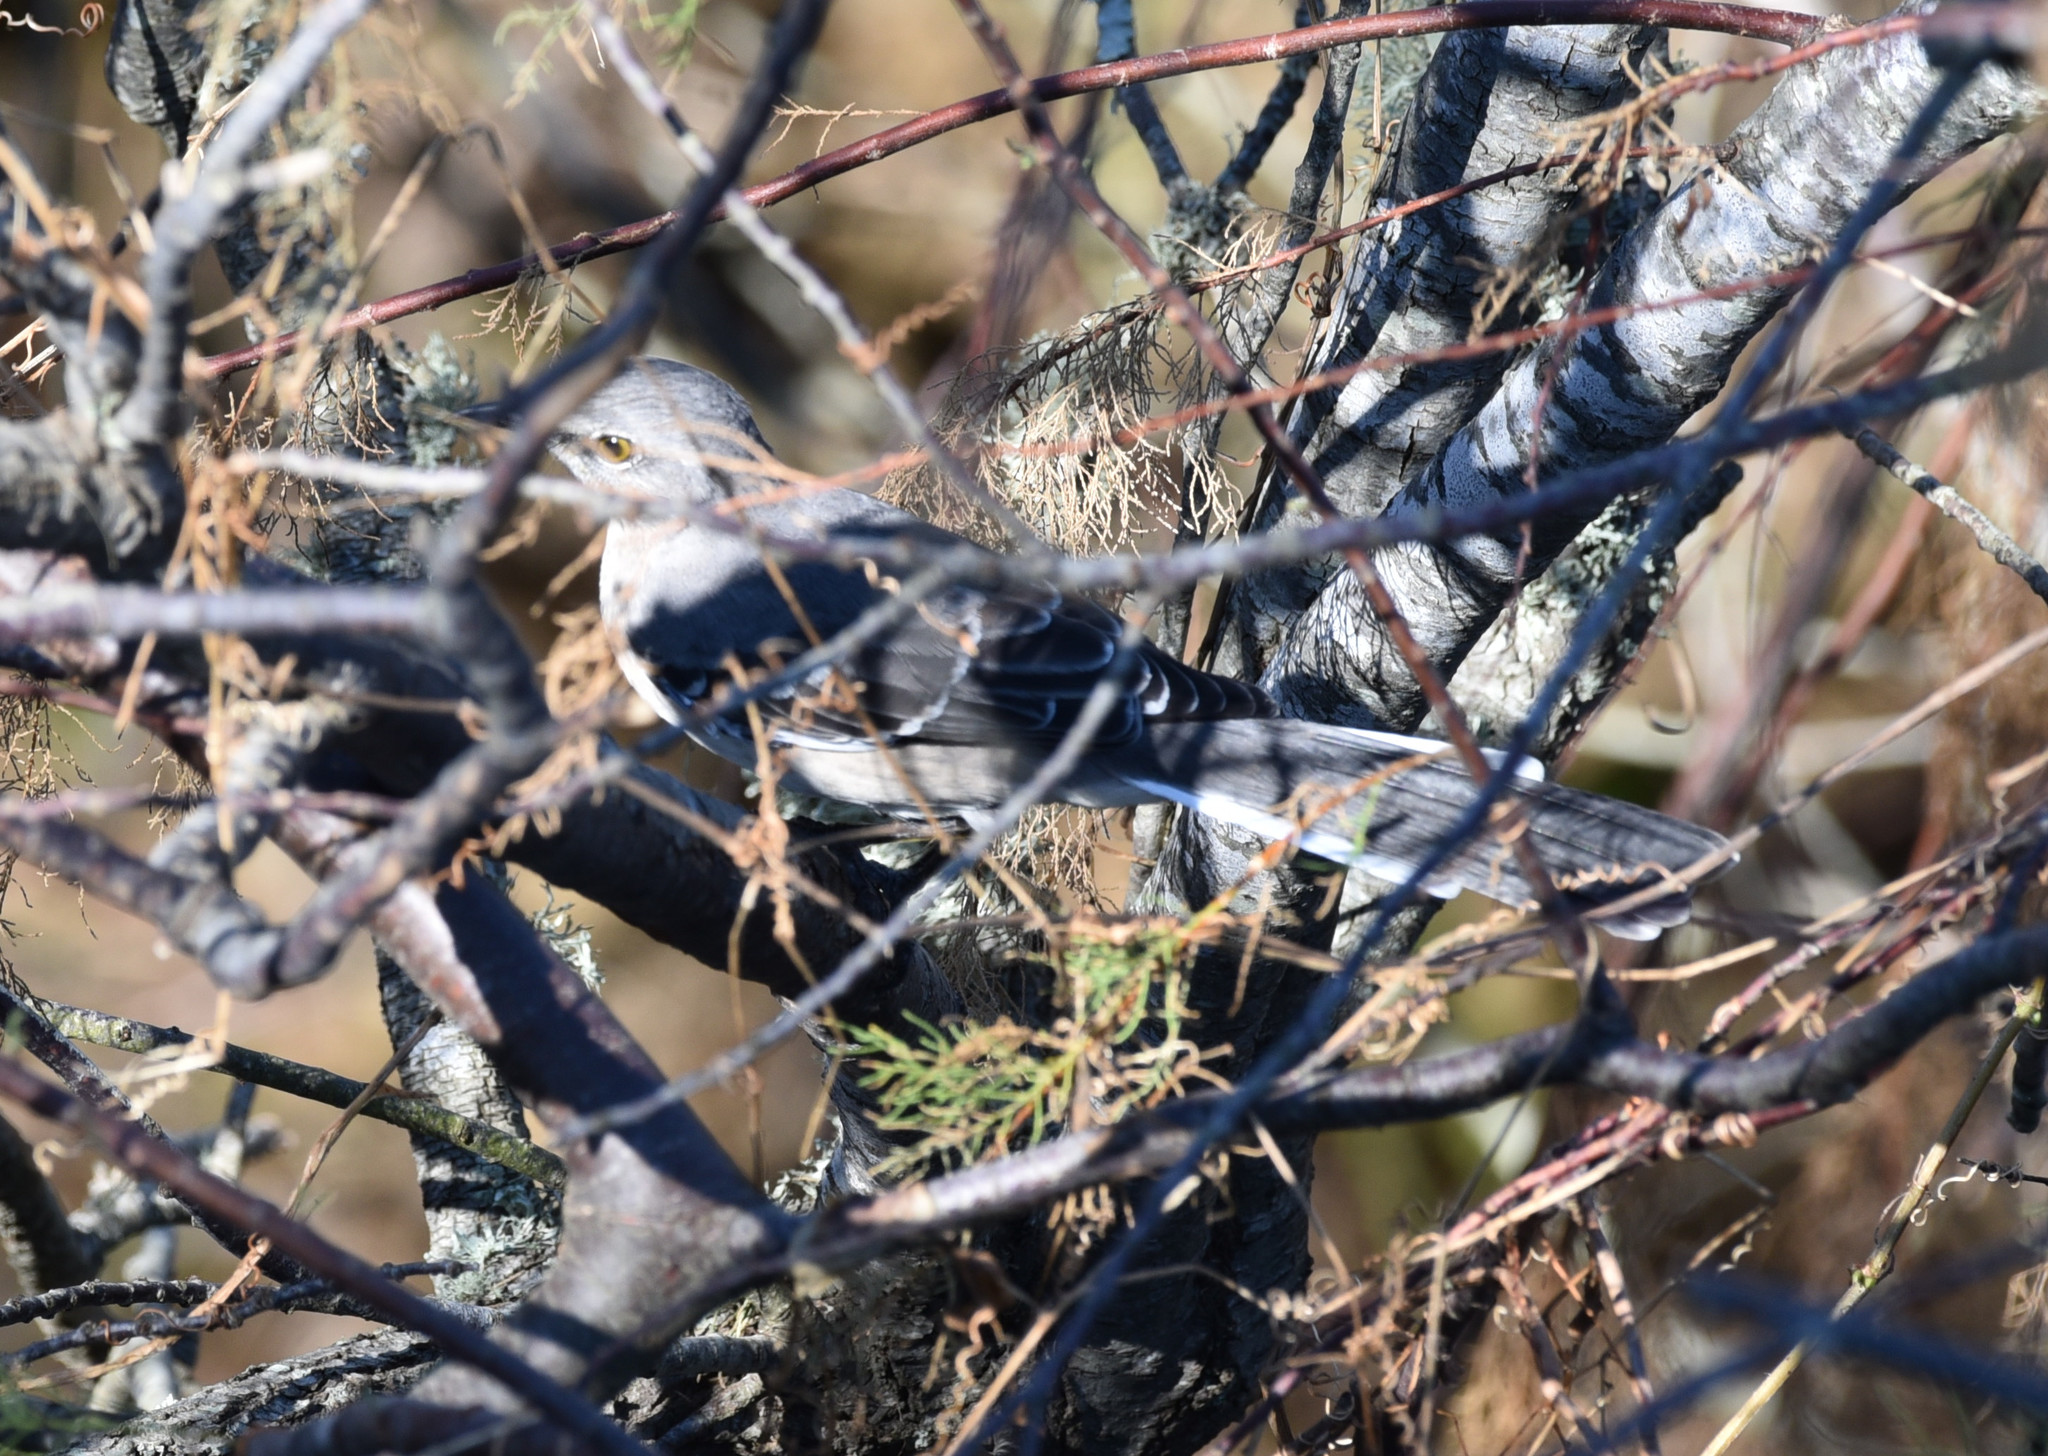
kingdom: Animalia
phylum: Chordata
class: Aves
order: Passeriformes
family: Mimidae
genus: Mimus
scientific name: Mimus polyglottos
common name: Northern mockingbird
